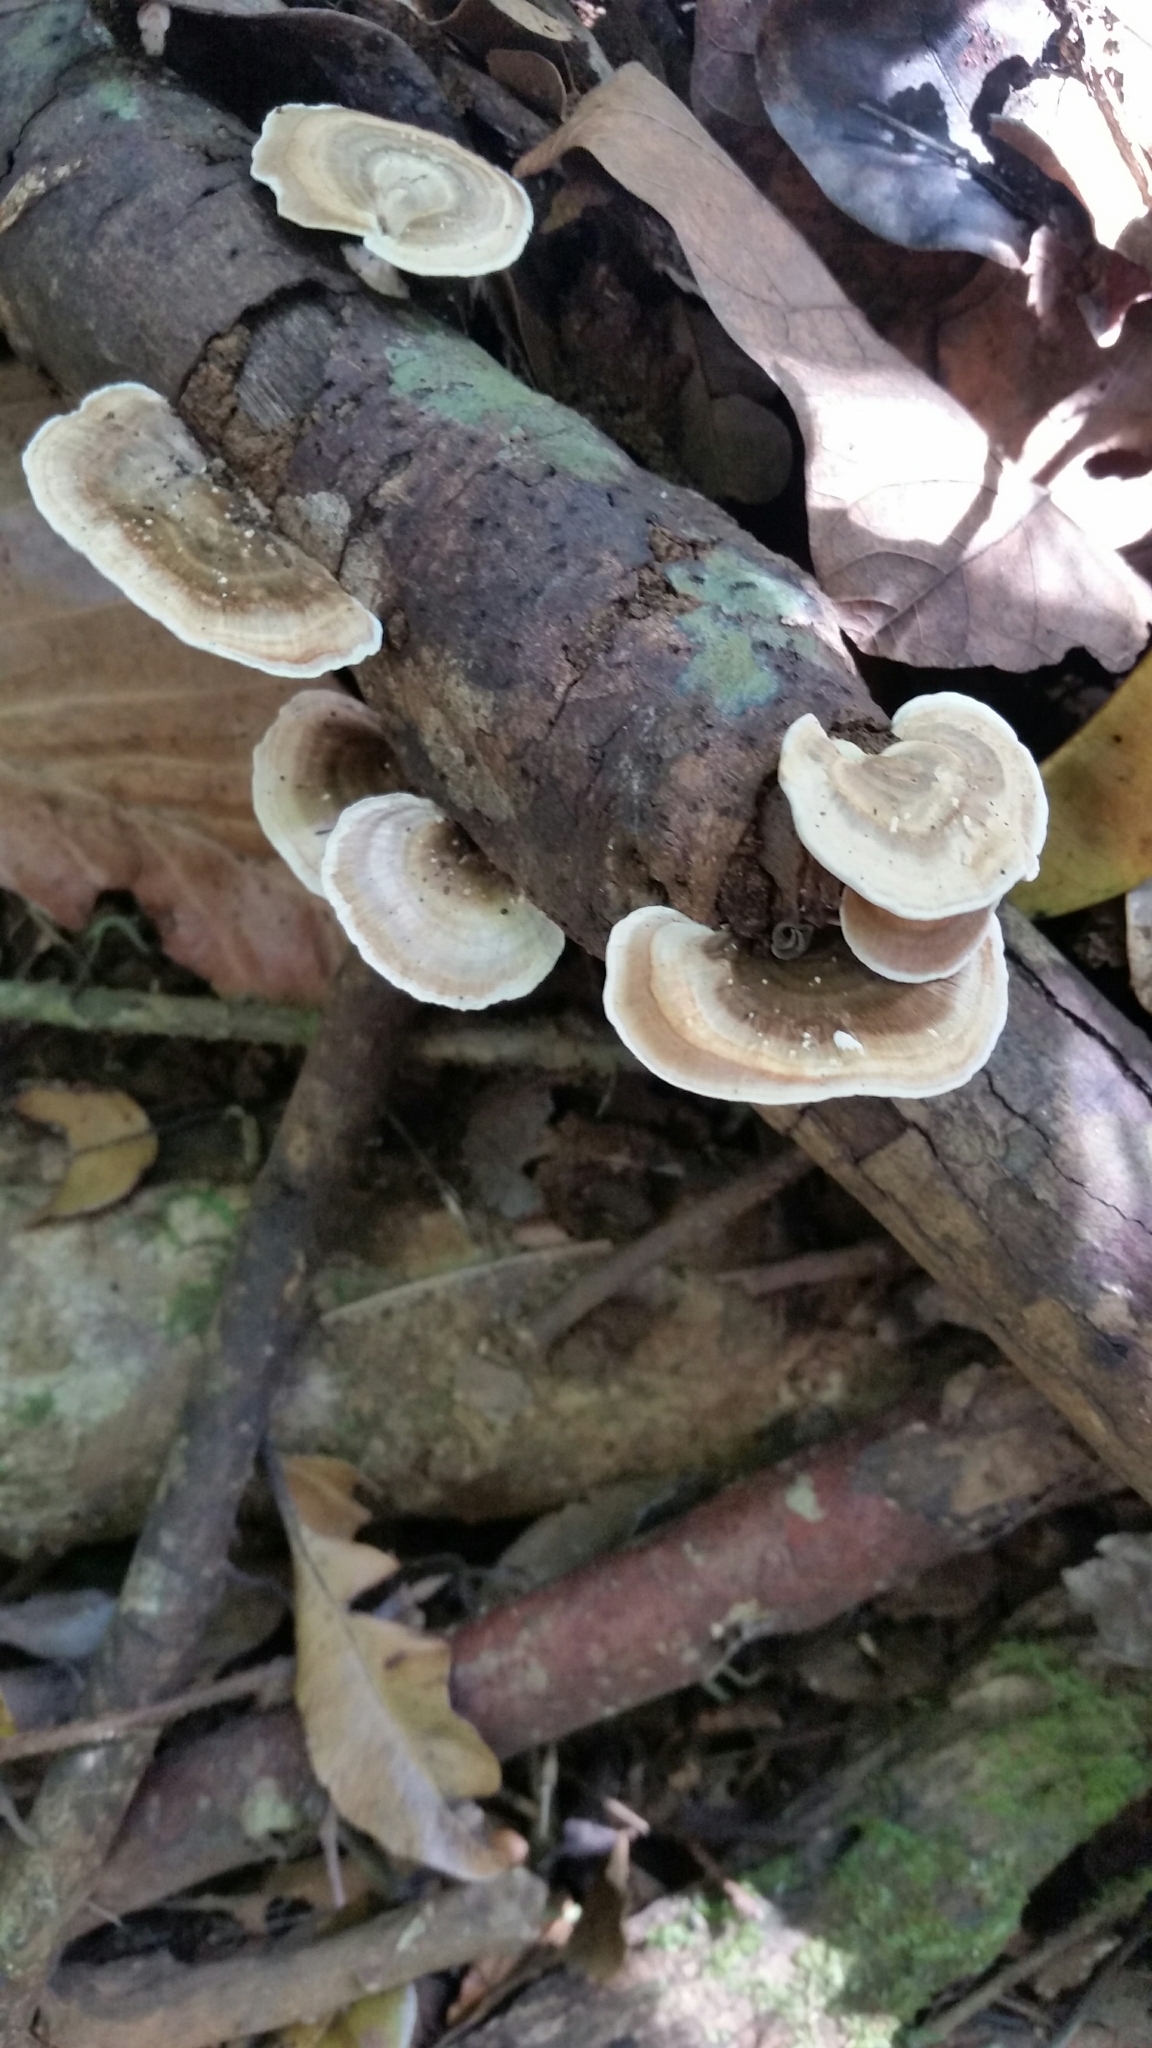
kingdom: Fungi
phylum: Basidiomycota
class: Agaricomycetes
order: Polyporales
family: Polyporaceae
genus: Trametes
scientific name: Trametes vernicipes
